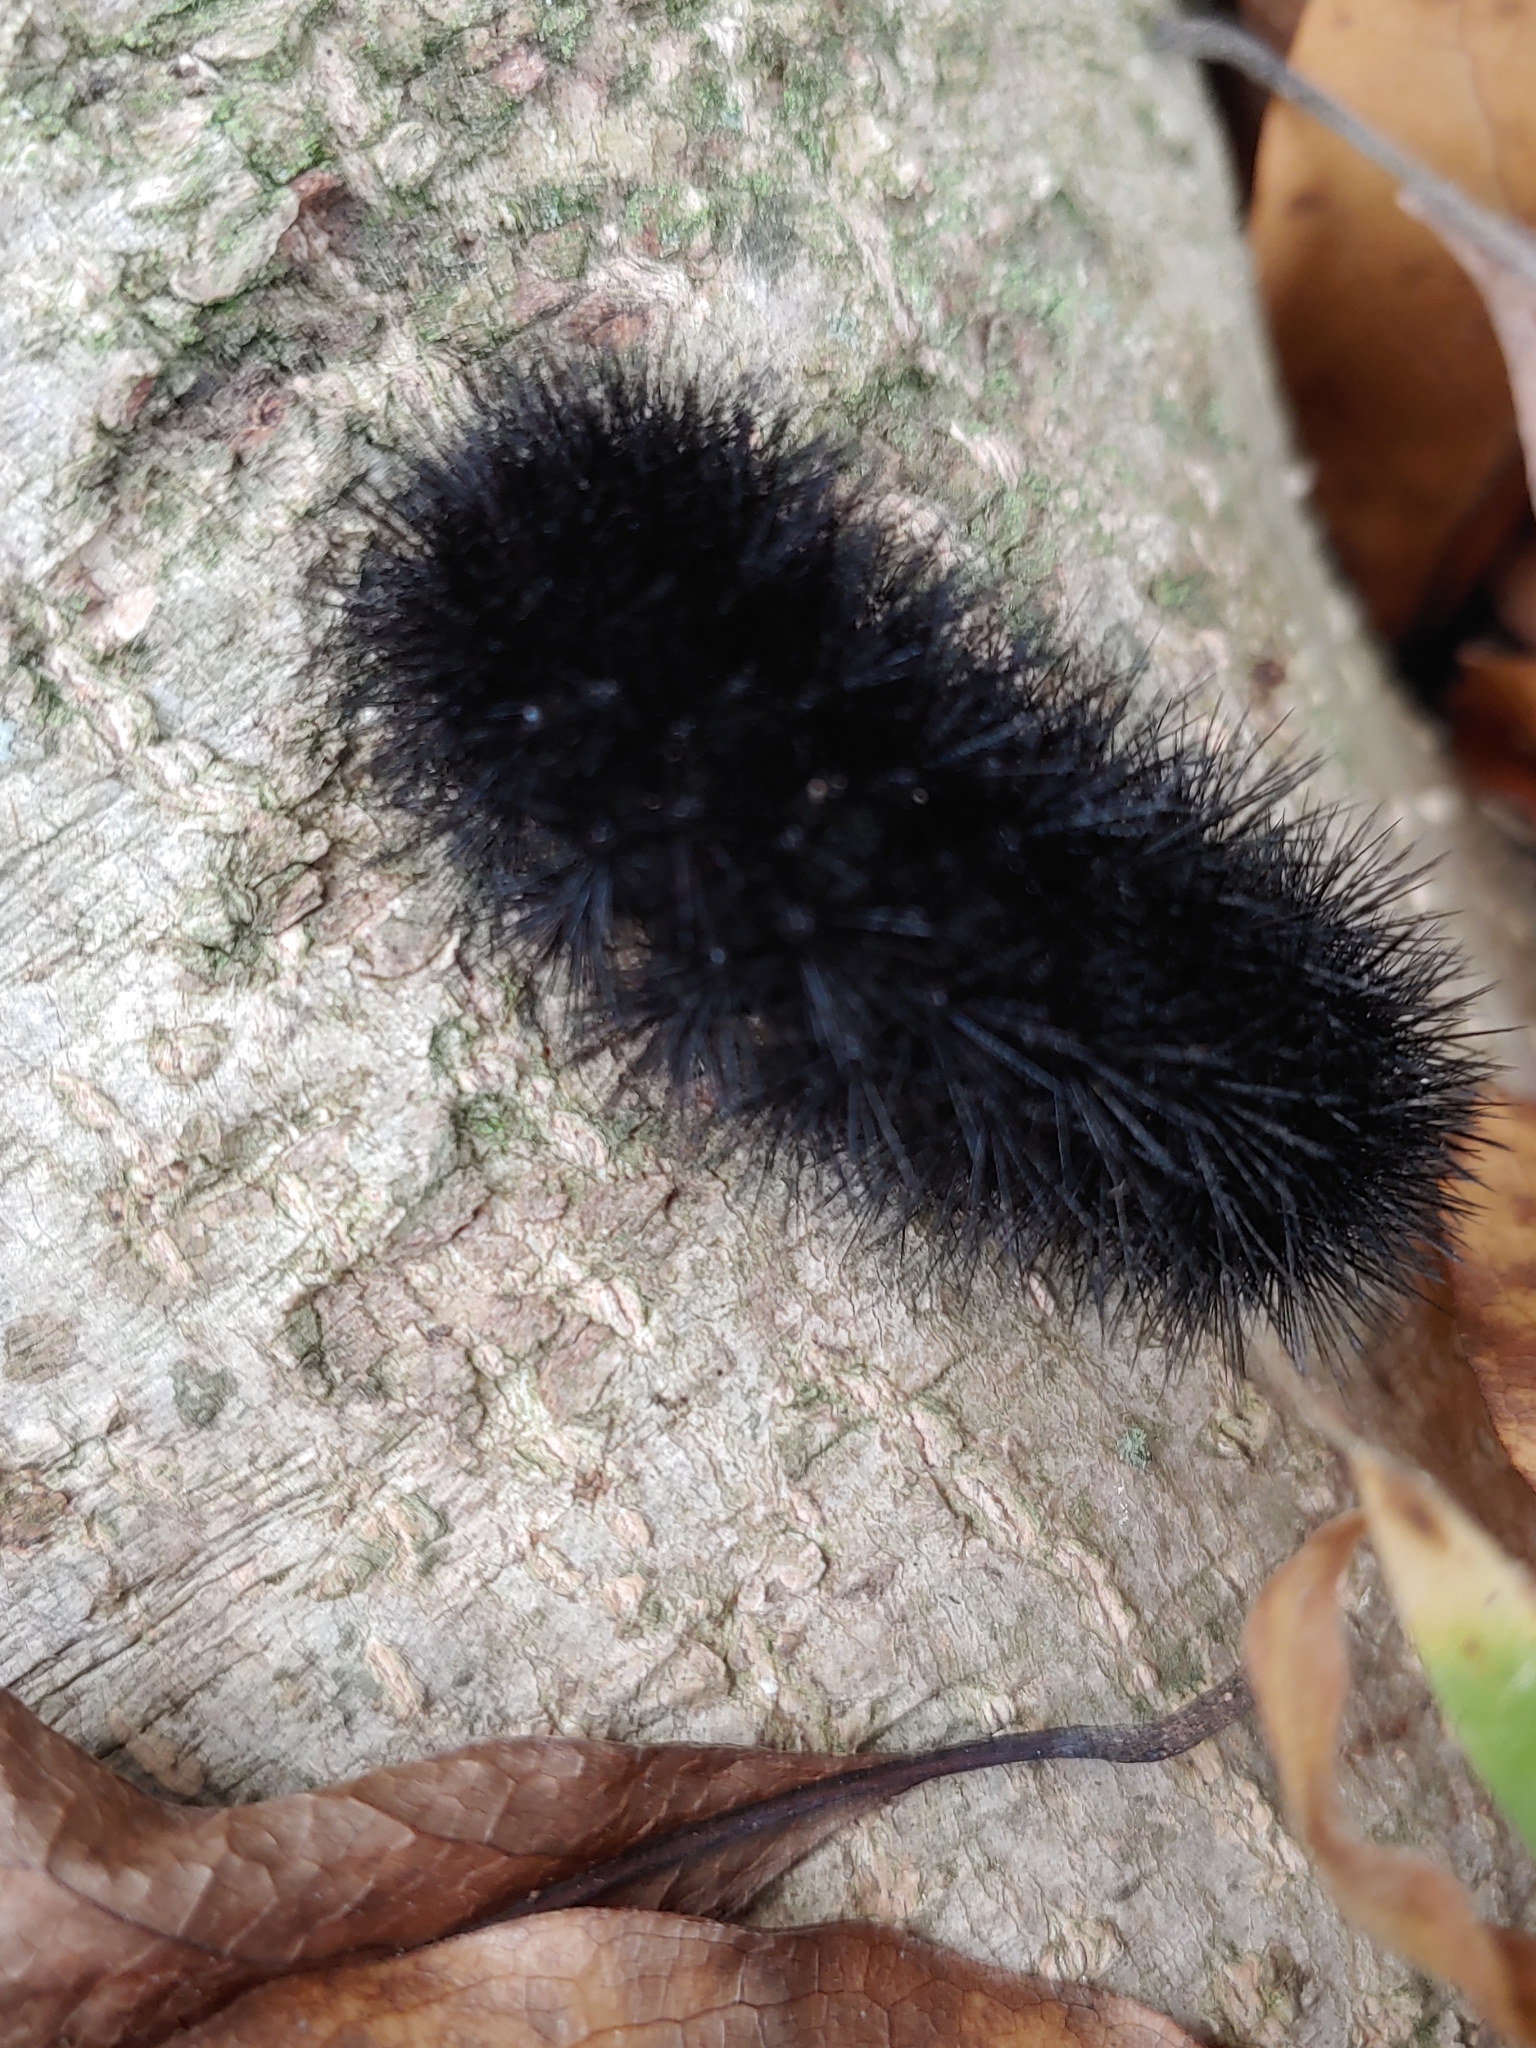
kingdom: Animalia
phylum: Arthropoda
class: Insecta
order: Lepidoptera
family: Erebidae
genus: Hypercompe
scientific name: Hypercompe scribonia
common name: Giant leopard moth
